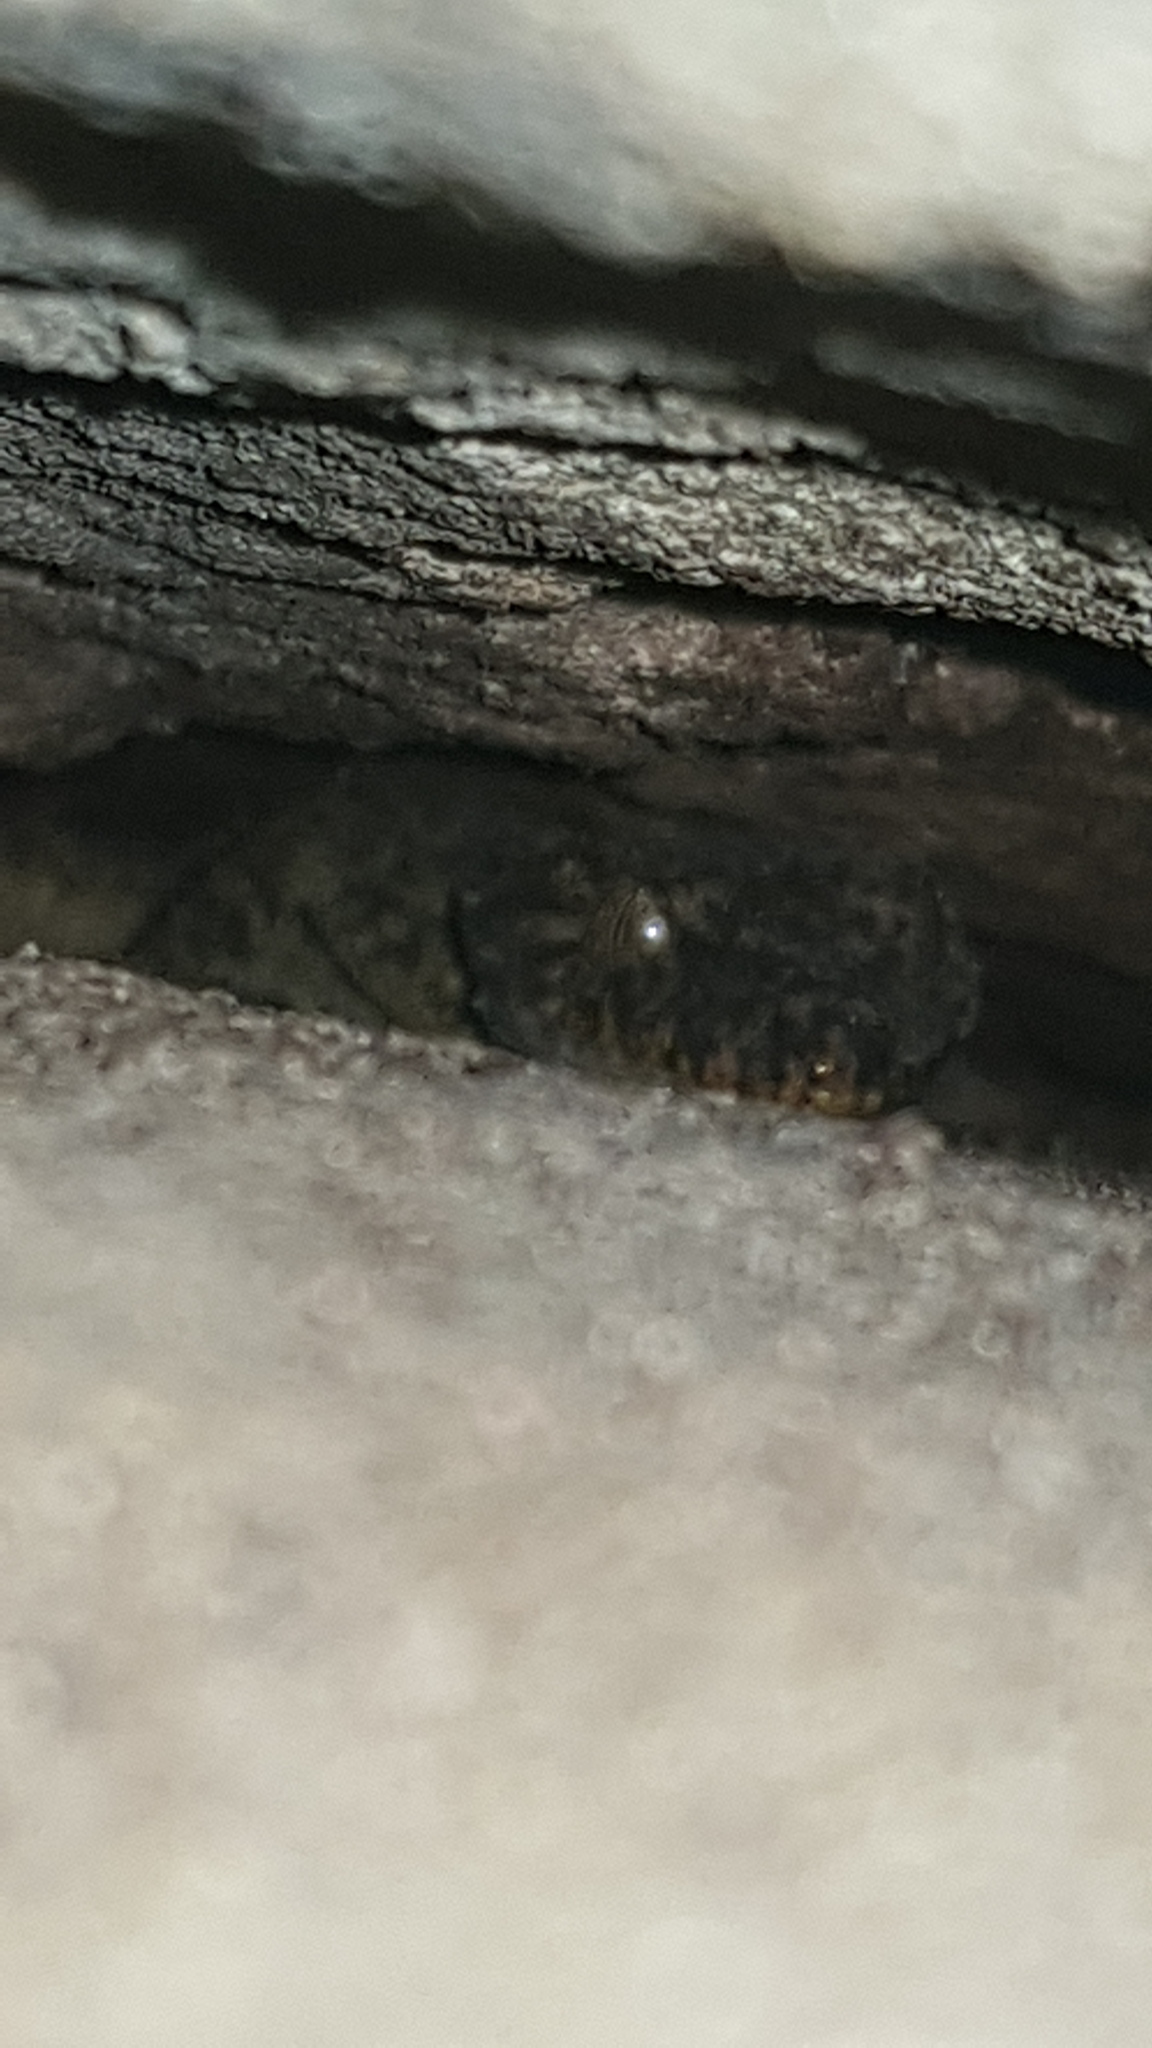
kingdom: Animalia
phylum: Chordata
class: Squamata
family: Carphodactylidae
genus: Phyllurus
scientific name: Phyllurus platurus
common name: Broad-tailed gecko
